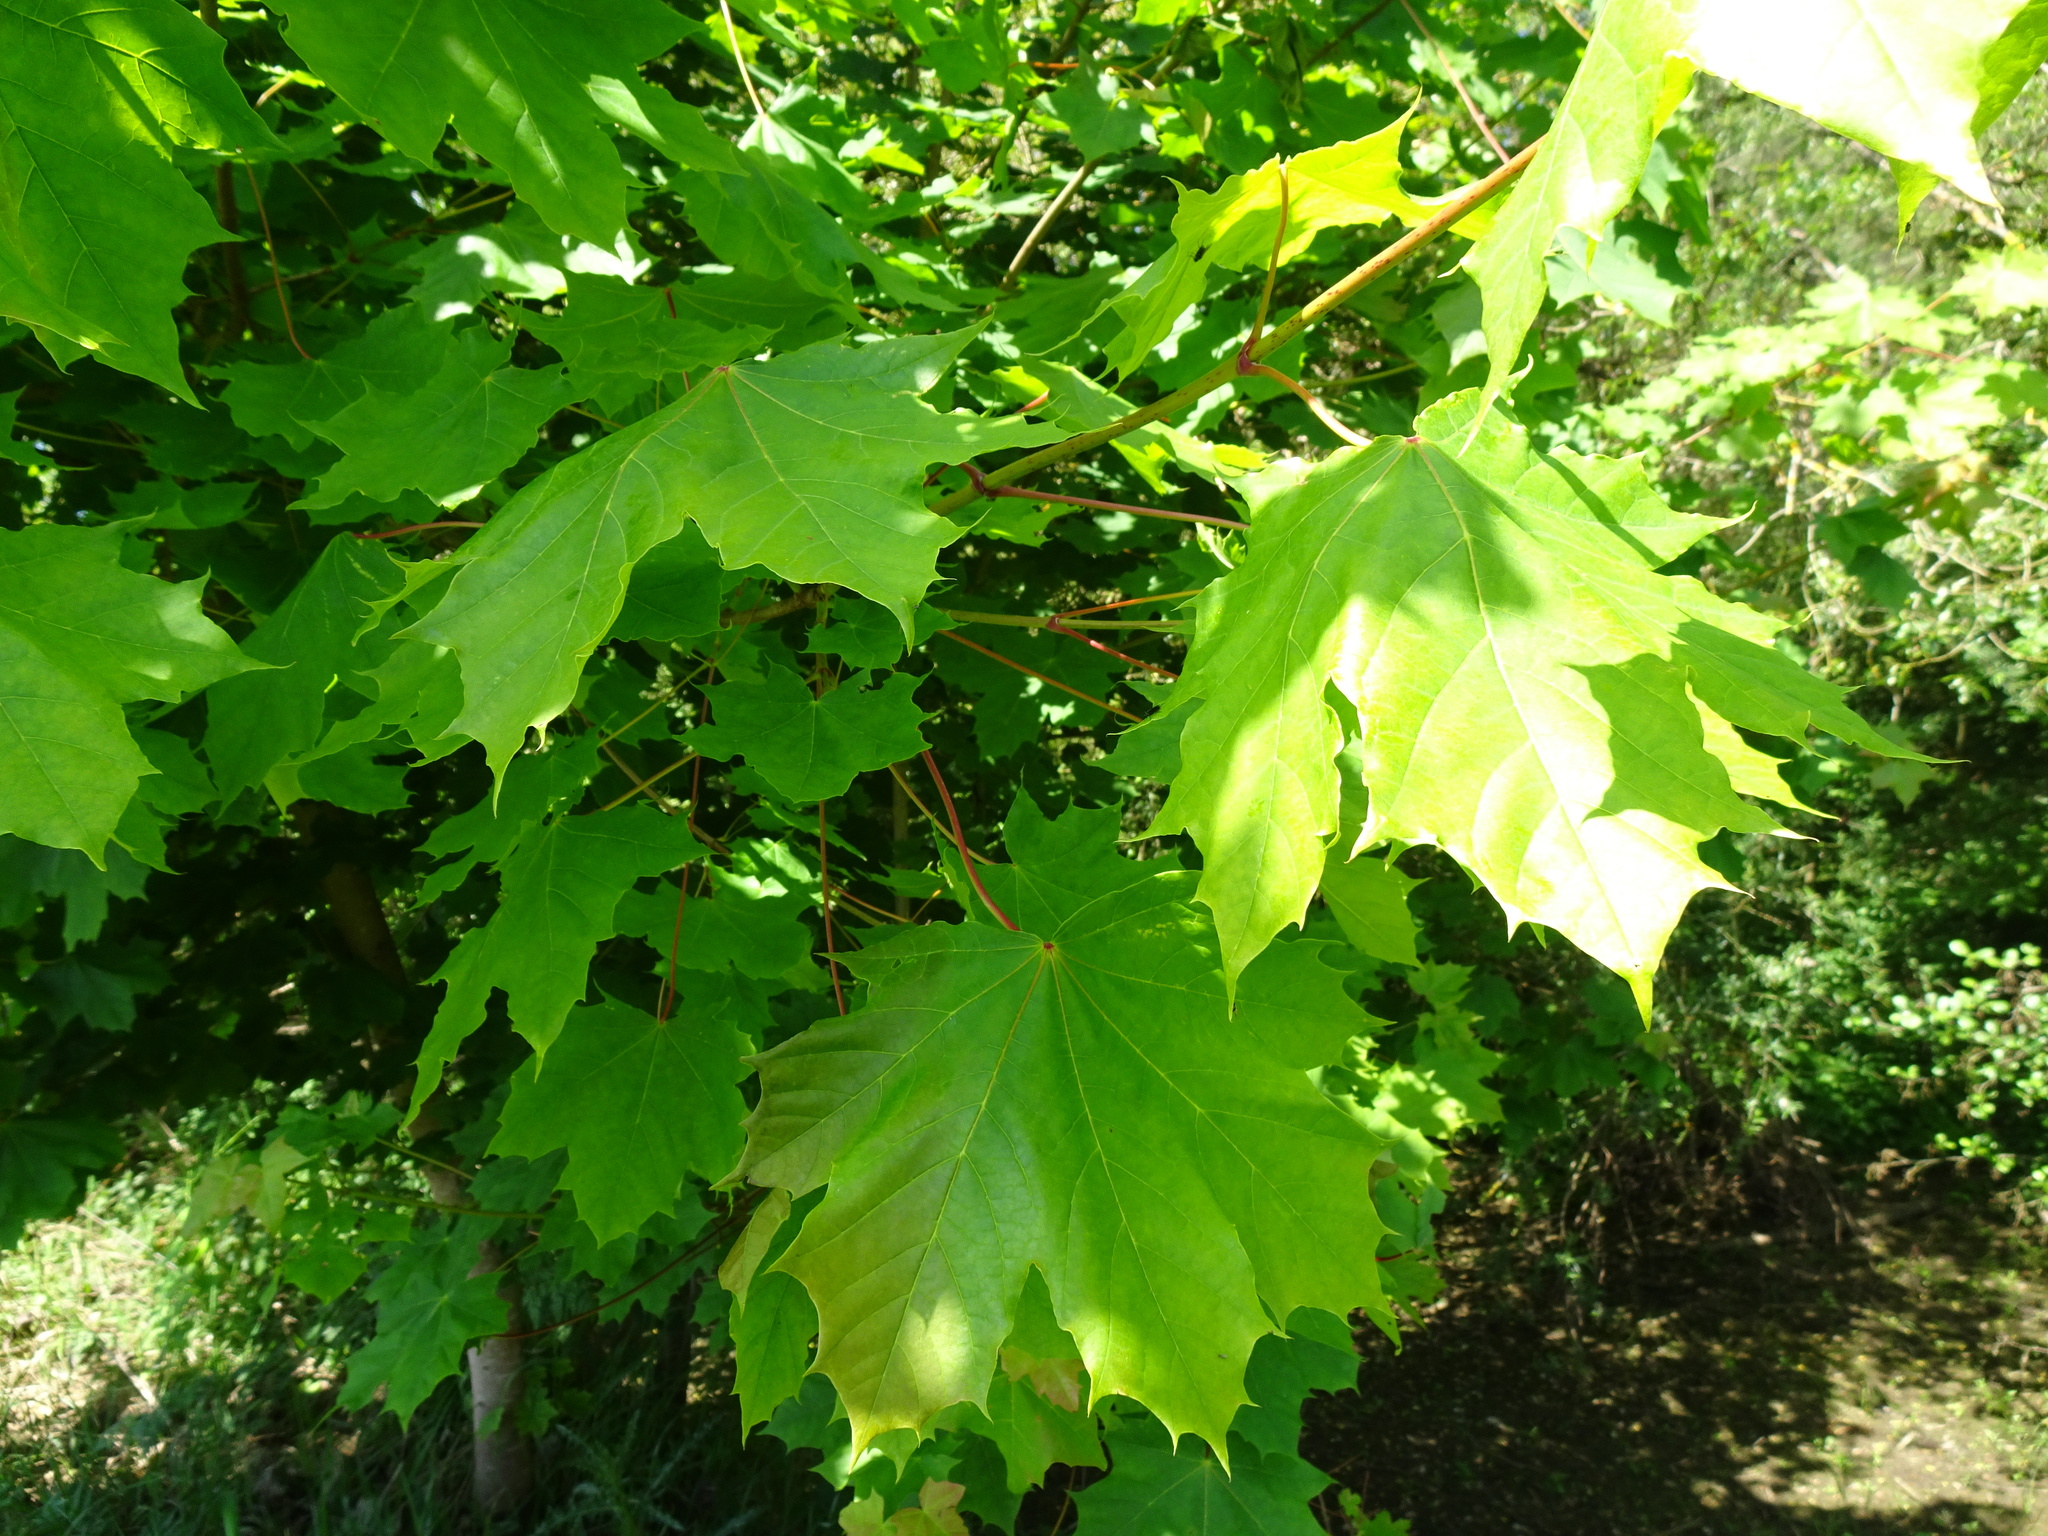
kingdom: Plantae
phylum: Tracheophyta
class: Magnoliopsida
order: Sapindales
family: Sapindaceae
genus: Acer
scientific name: Acer platanoides
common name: Norway maple
